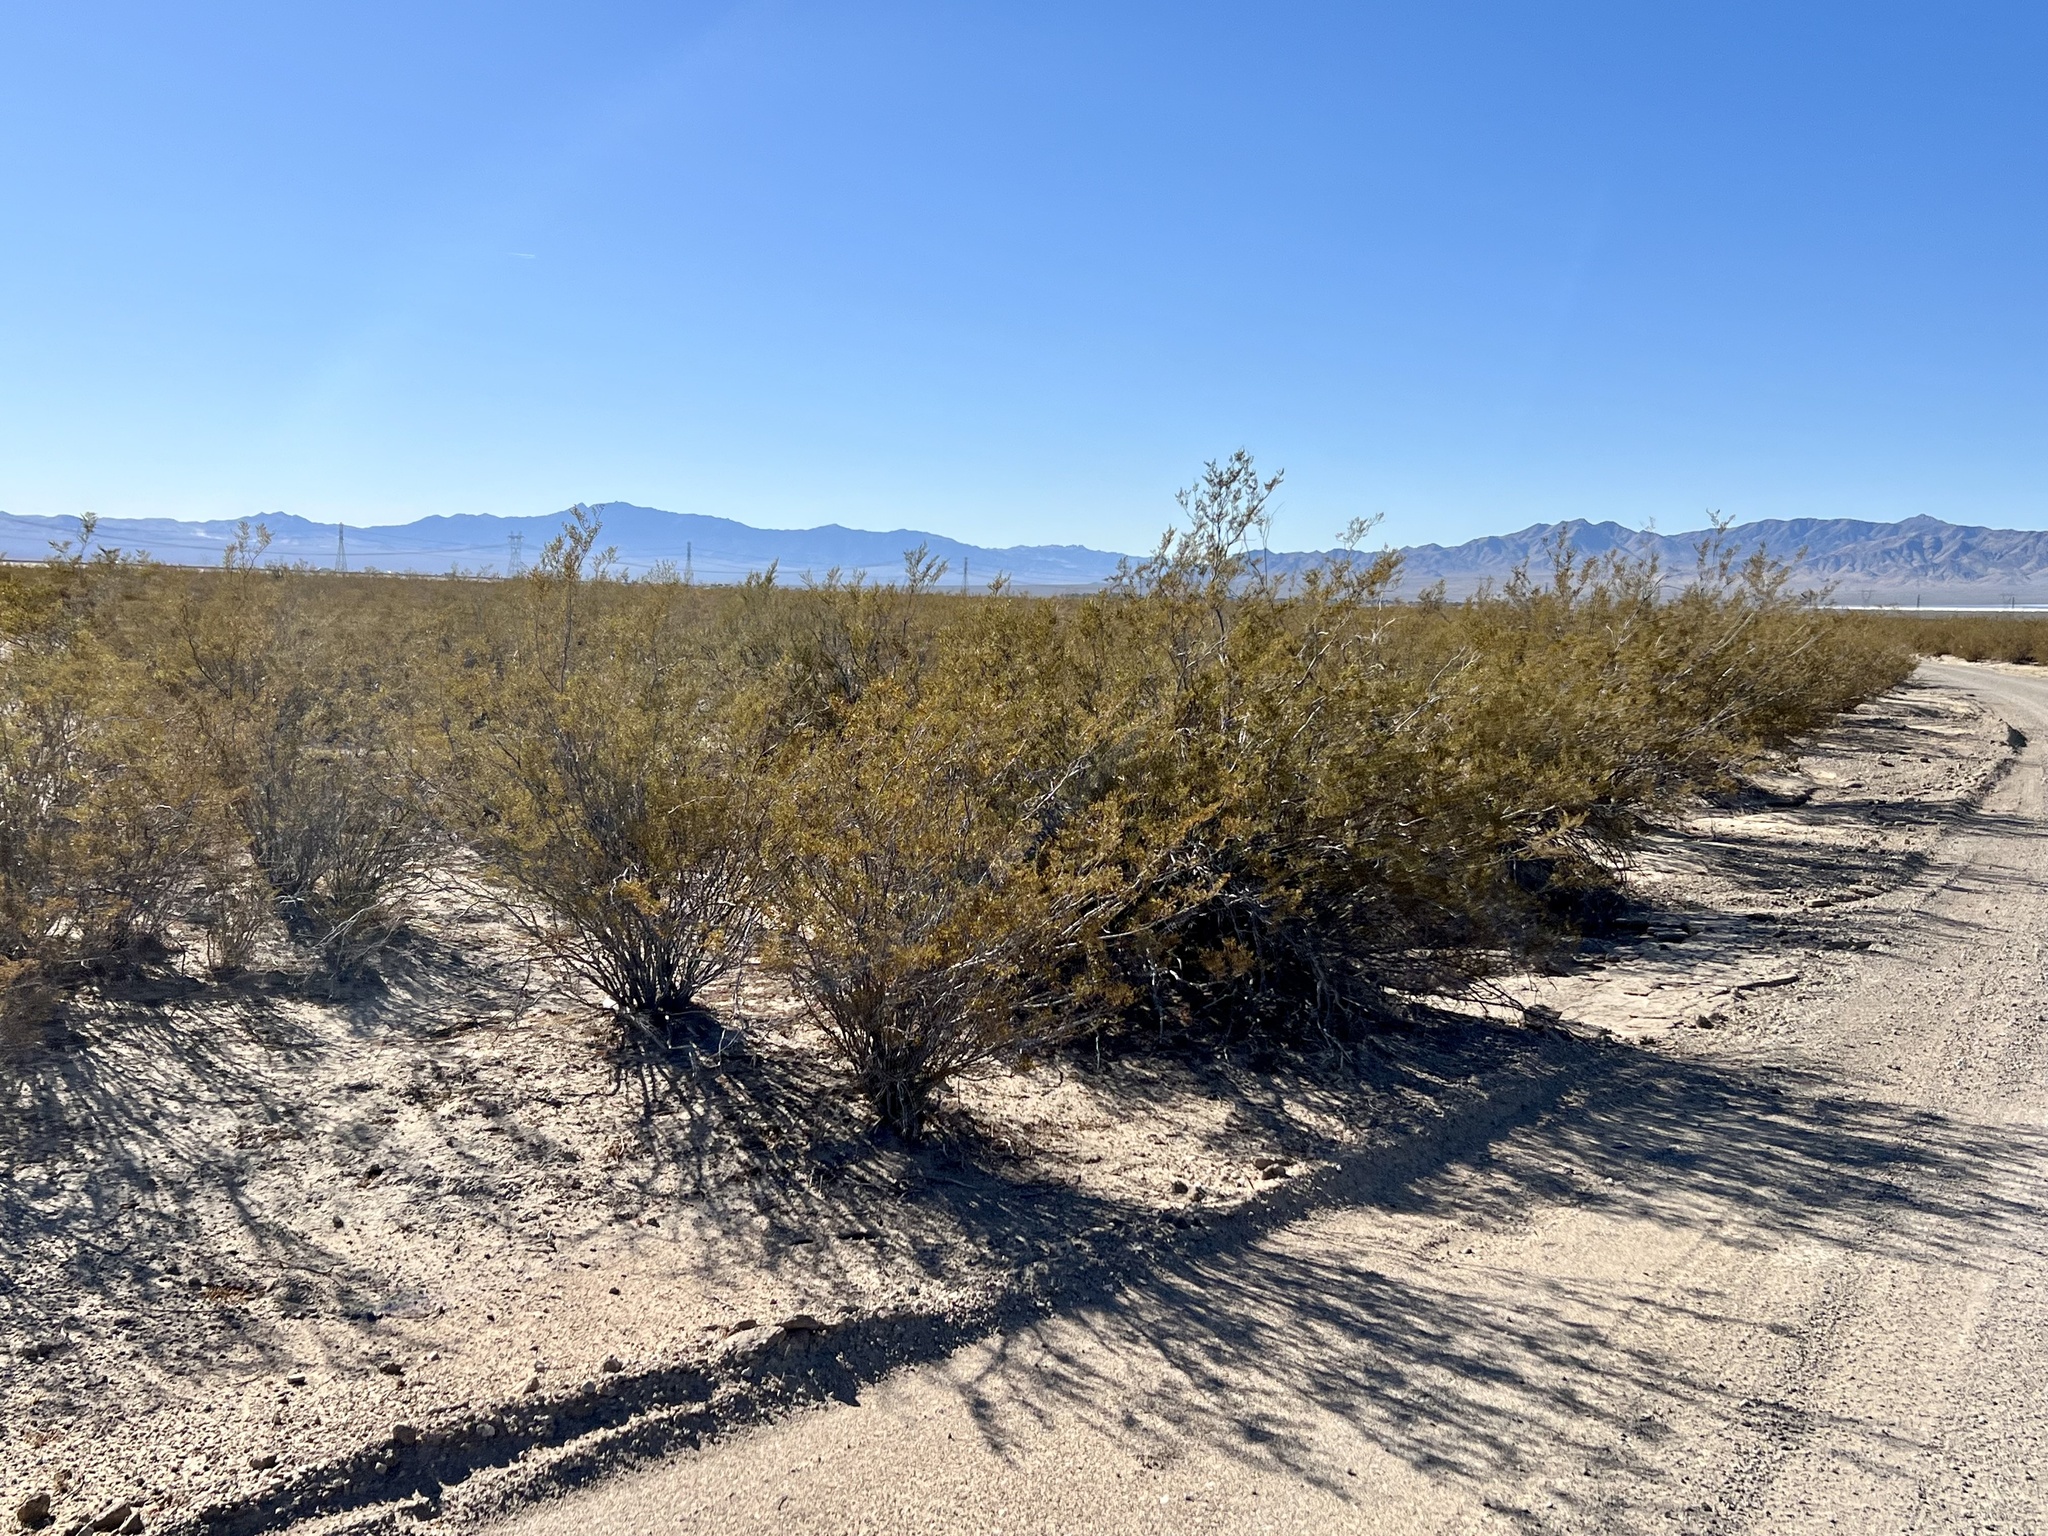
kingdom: Plantae
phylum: Tracheophyta
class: Magnoliopsida
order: Zygophyllales
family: Zygophyllaceae
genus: Larrea
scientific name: Larrea tridentata
